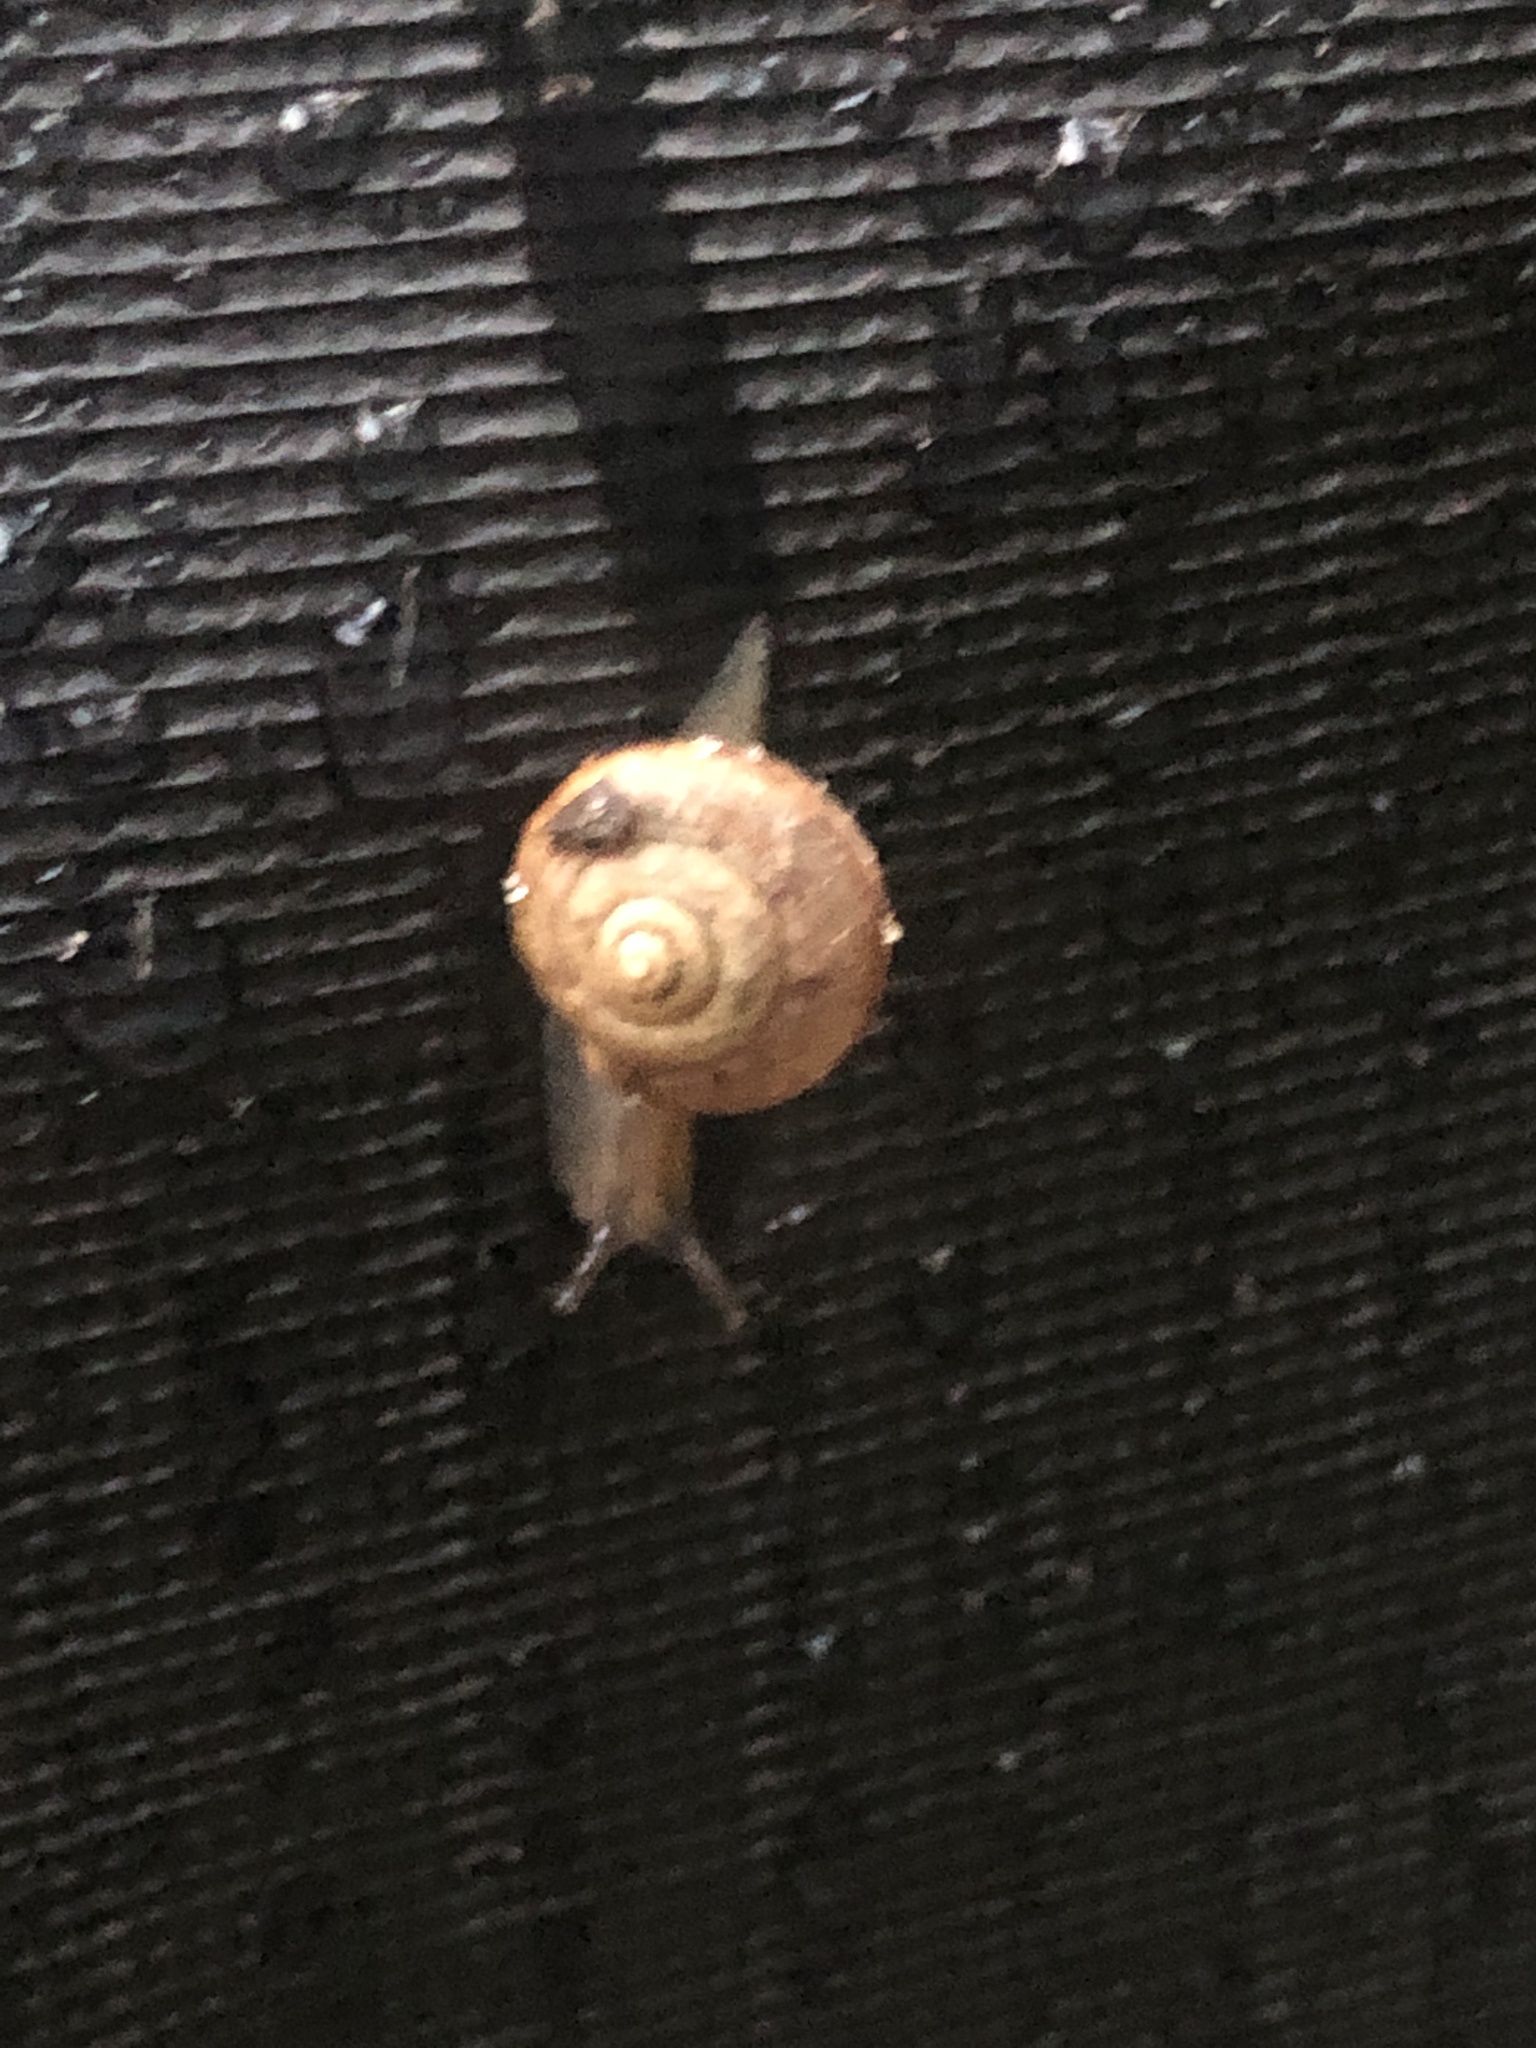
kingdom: Animalia
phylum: Mollusca
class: Gastropoda
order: Stylommatophora
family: Camaenidae
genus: Bradybaena
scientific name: Bradybaena similaris
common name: Asian trampsnail
